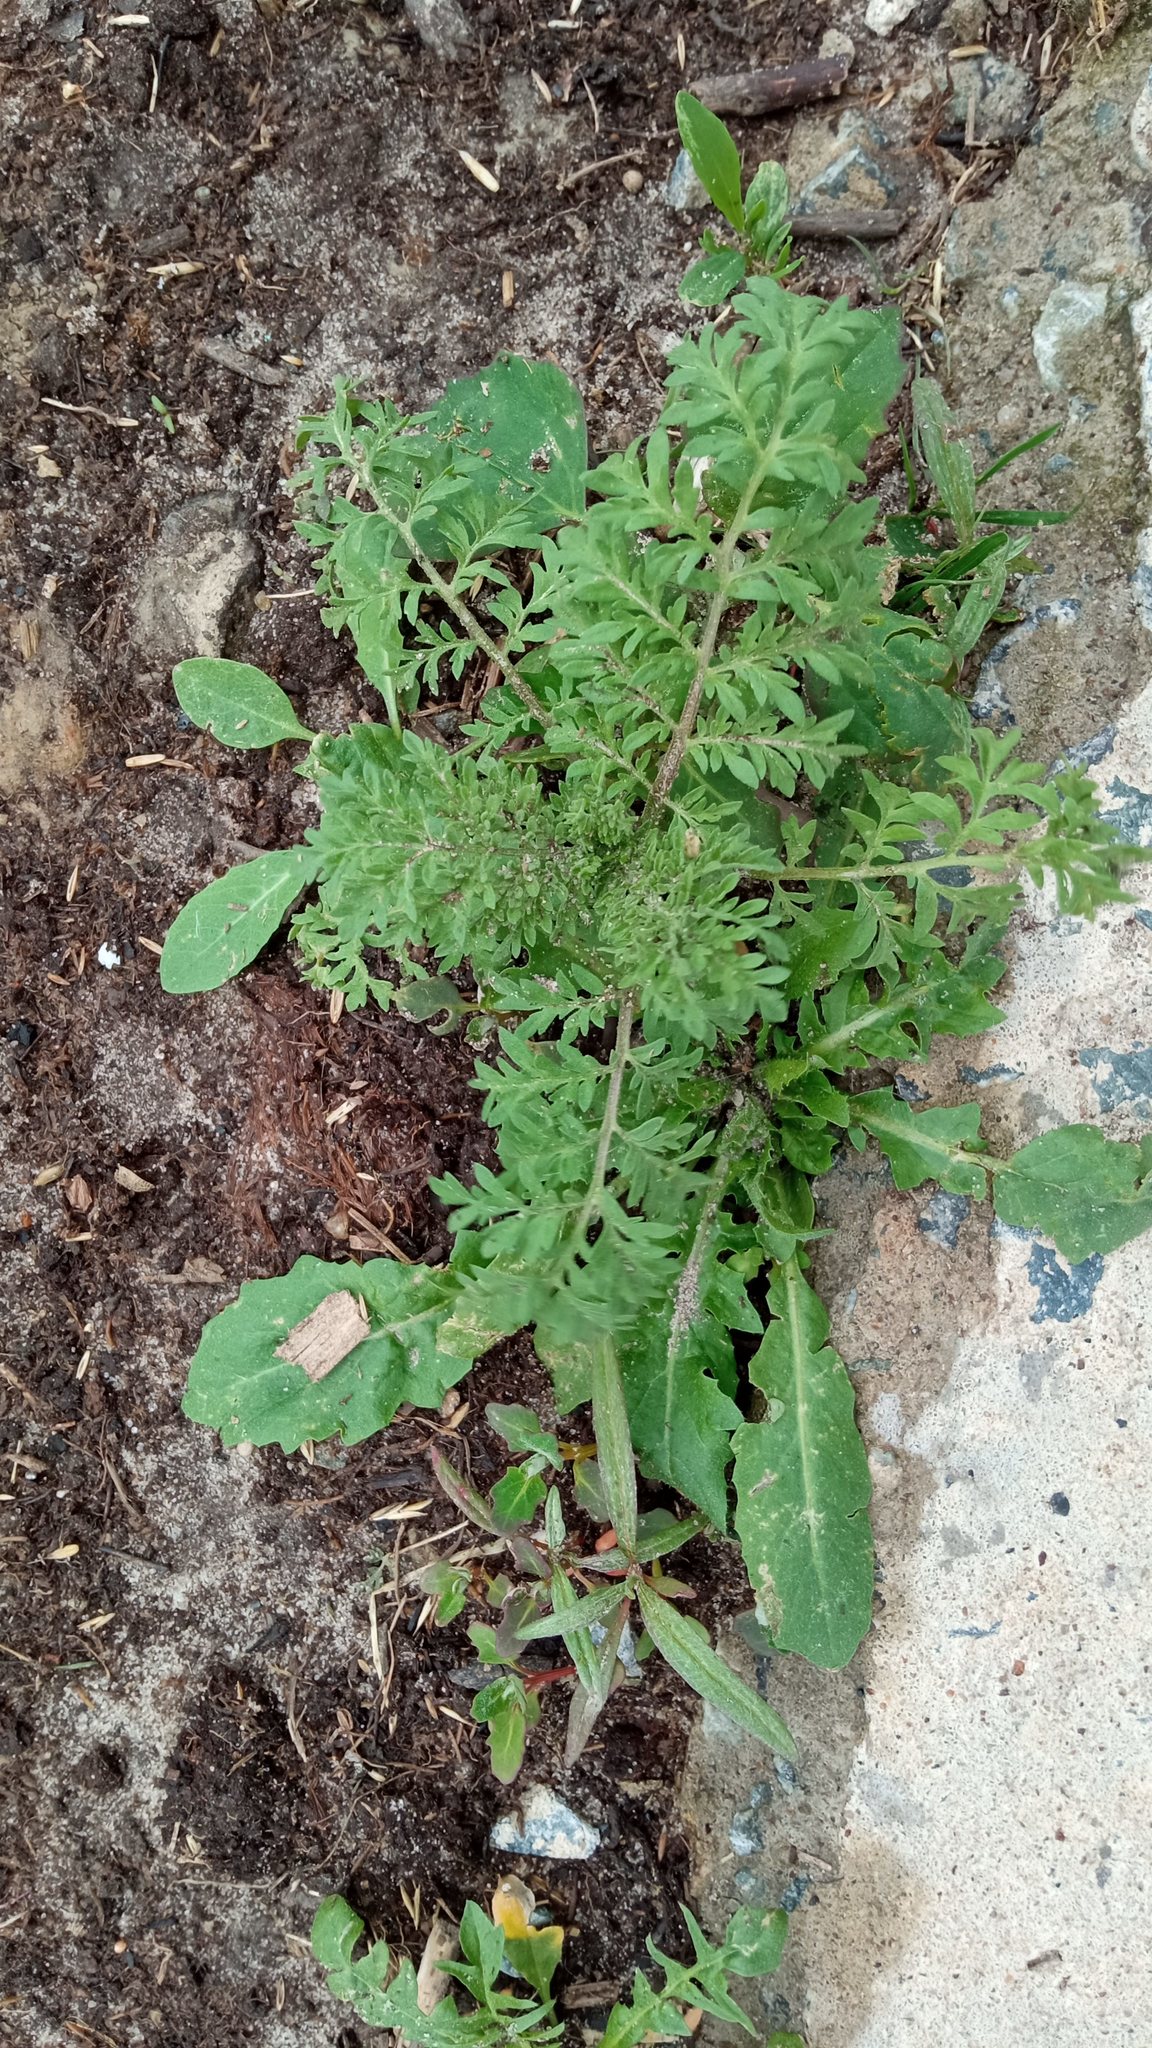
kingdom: Plantae
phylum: Tracheophyta
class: Magnoliopsida
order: Brassicales
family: Brassicaceae
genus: Descurainia
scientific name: Descurainia sophia
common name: Flixweed
